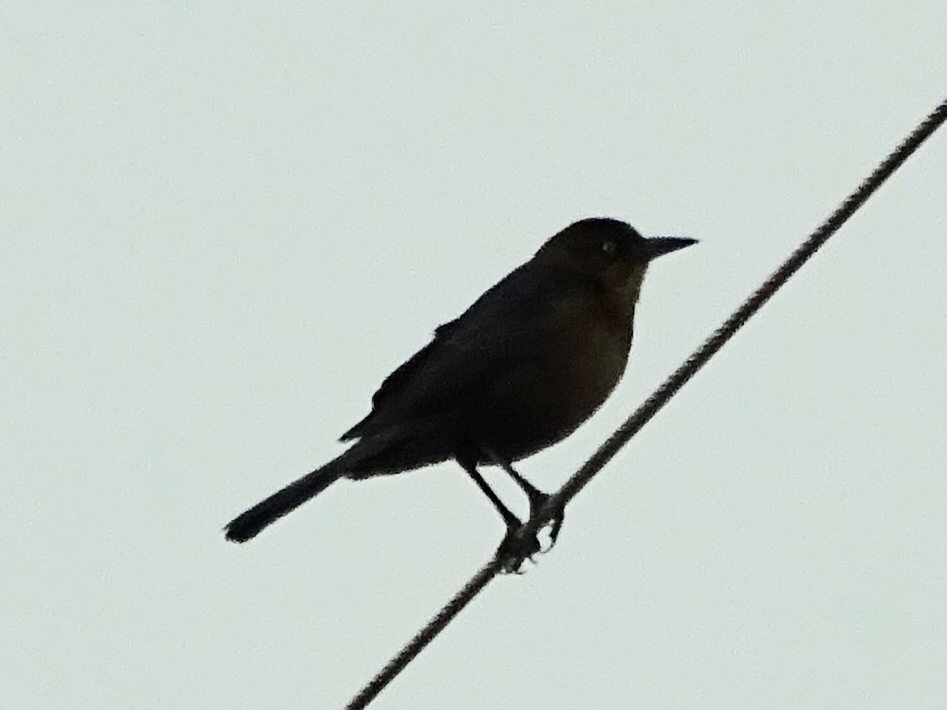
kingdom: Animalia
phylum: Chordata
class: Aves
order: Passeriformes
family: Icteridae
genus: Quiscalus
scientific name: Quiscalus mexicanus
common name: Great-tailed grackle
